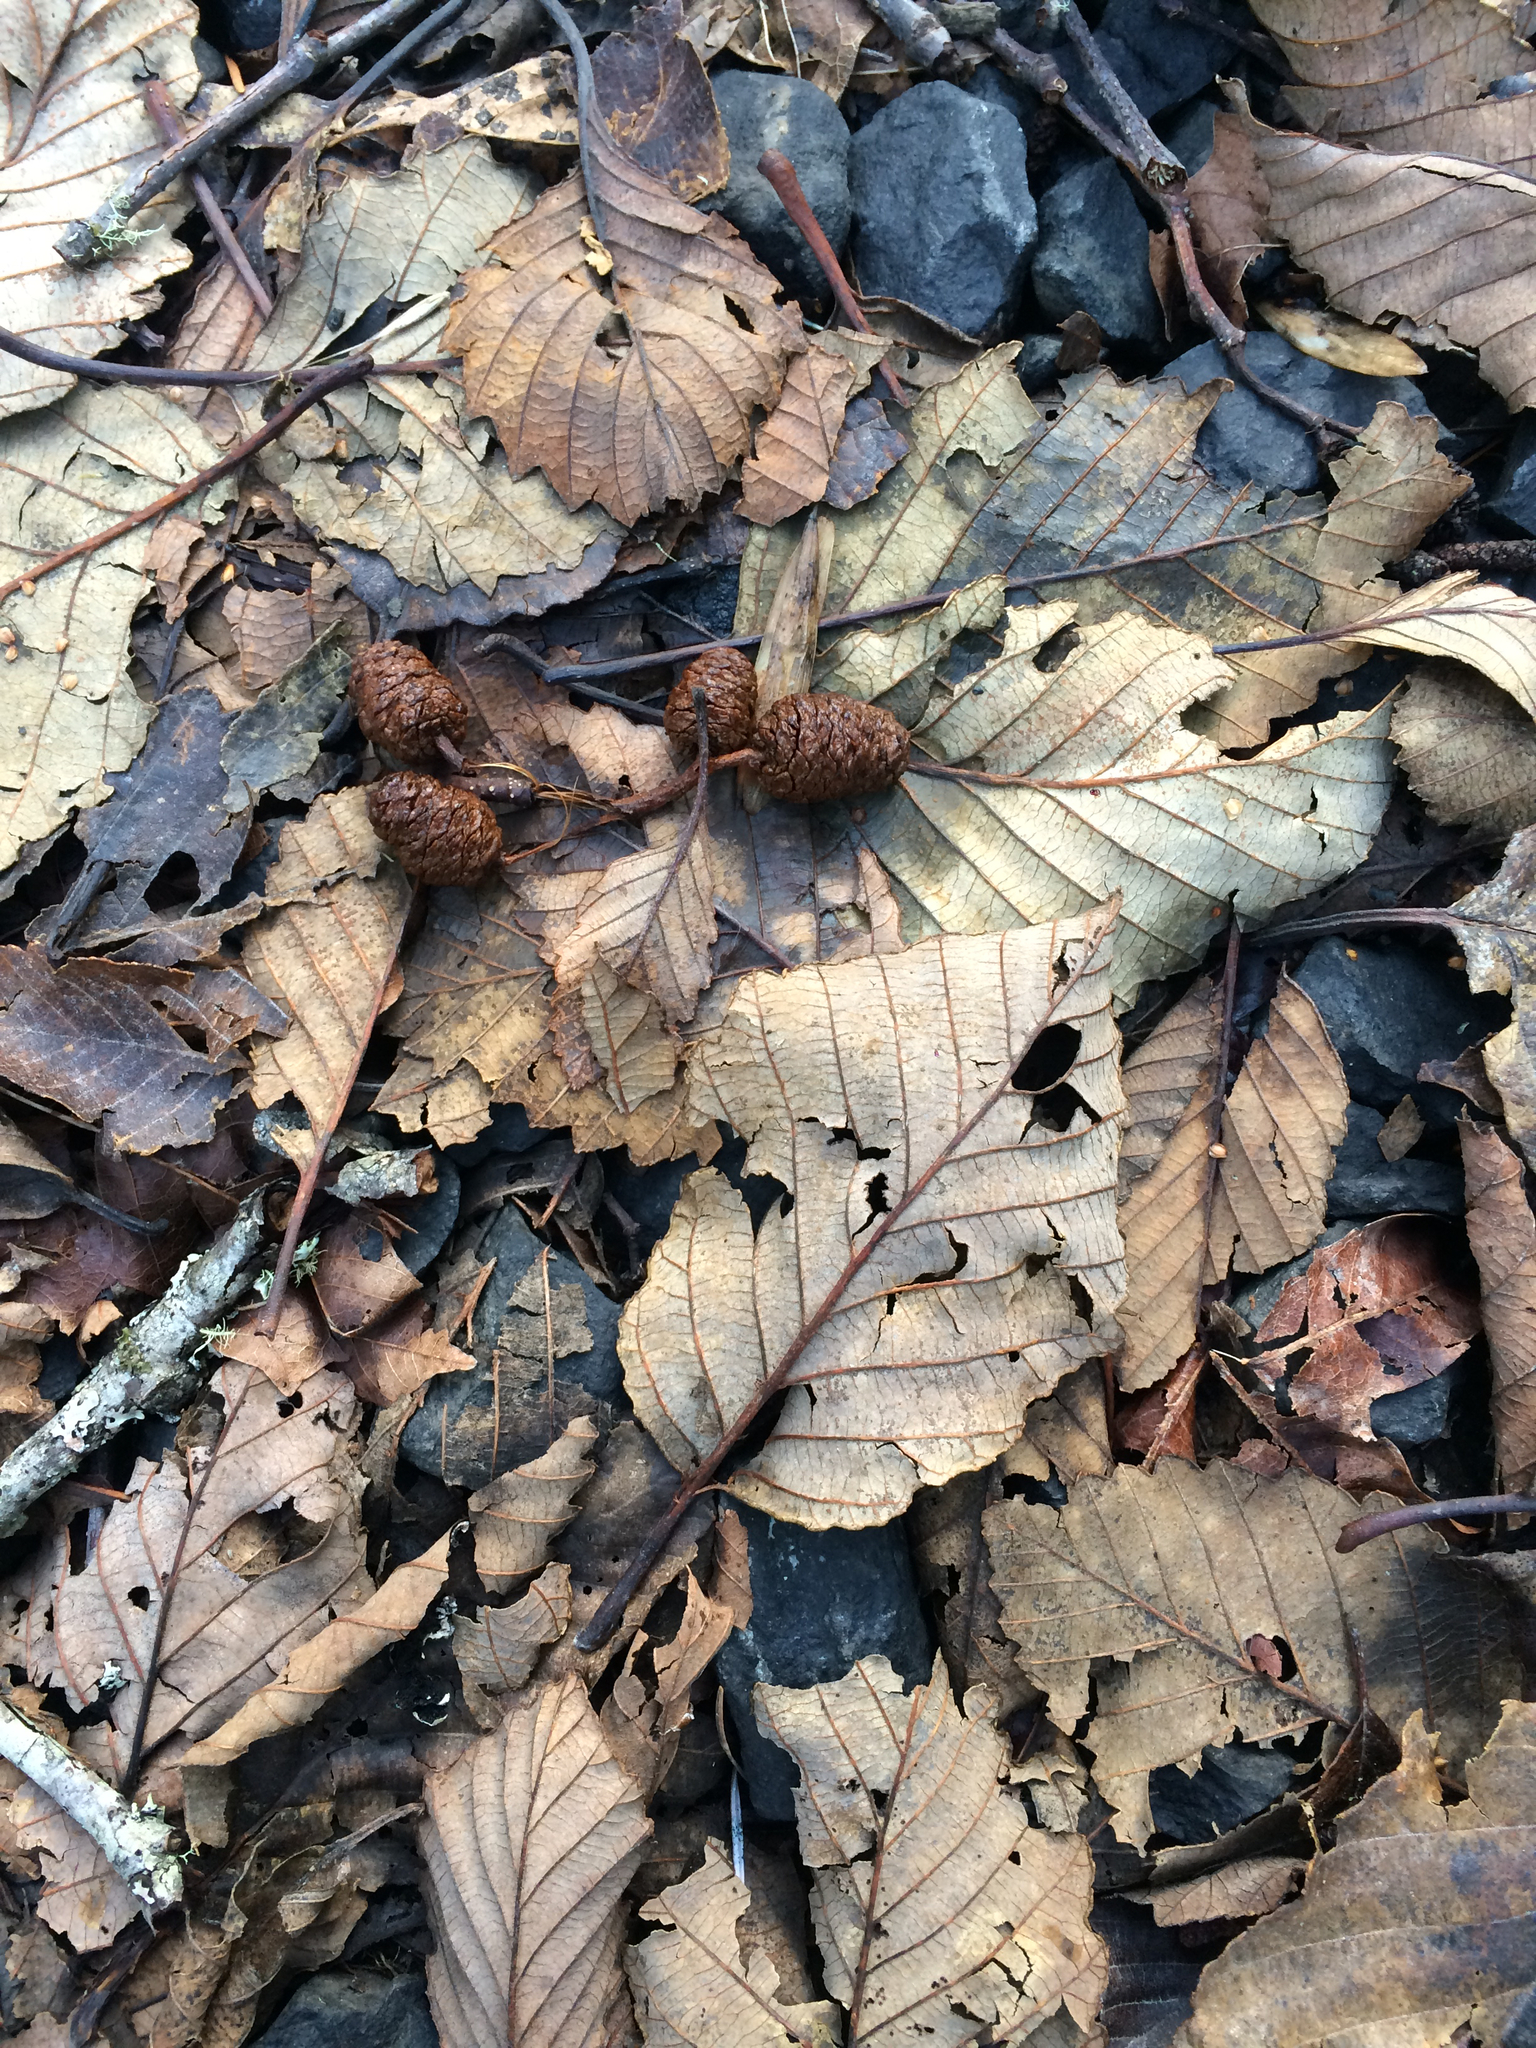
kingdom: Plantae
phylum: Tracheophyta
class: Magnoliopsida
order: Fagales
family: Betulaceae
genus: Alnus
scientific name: Alnus rubra
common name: Red alder
